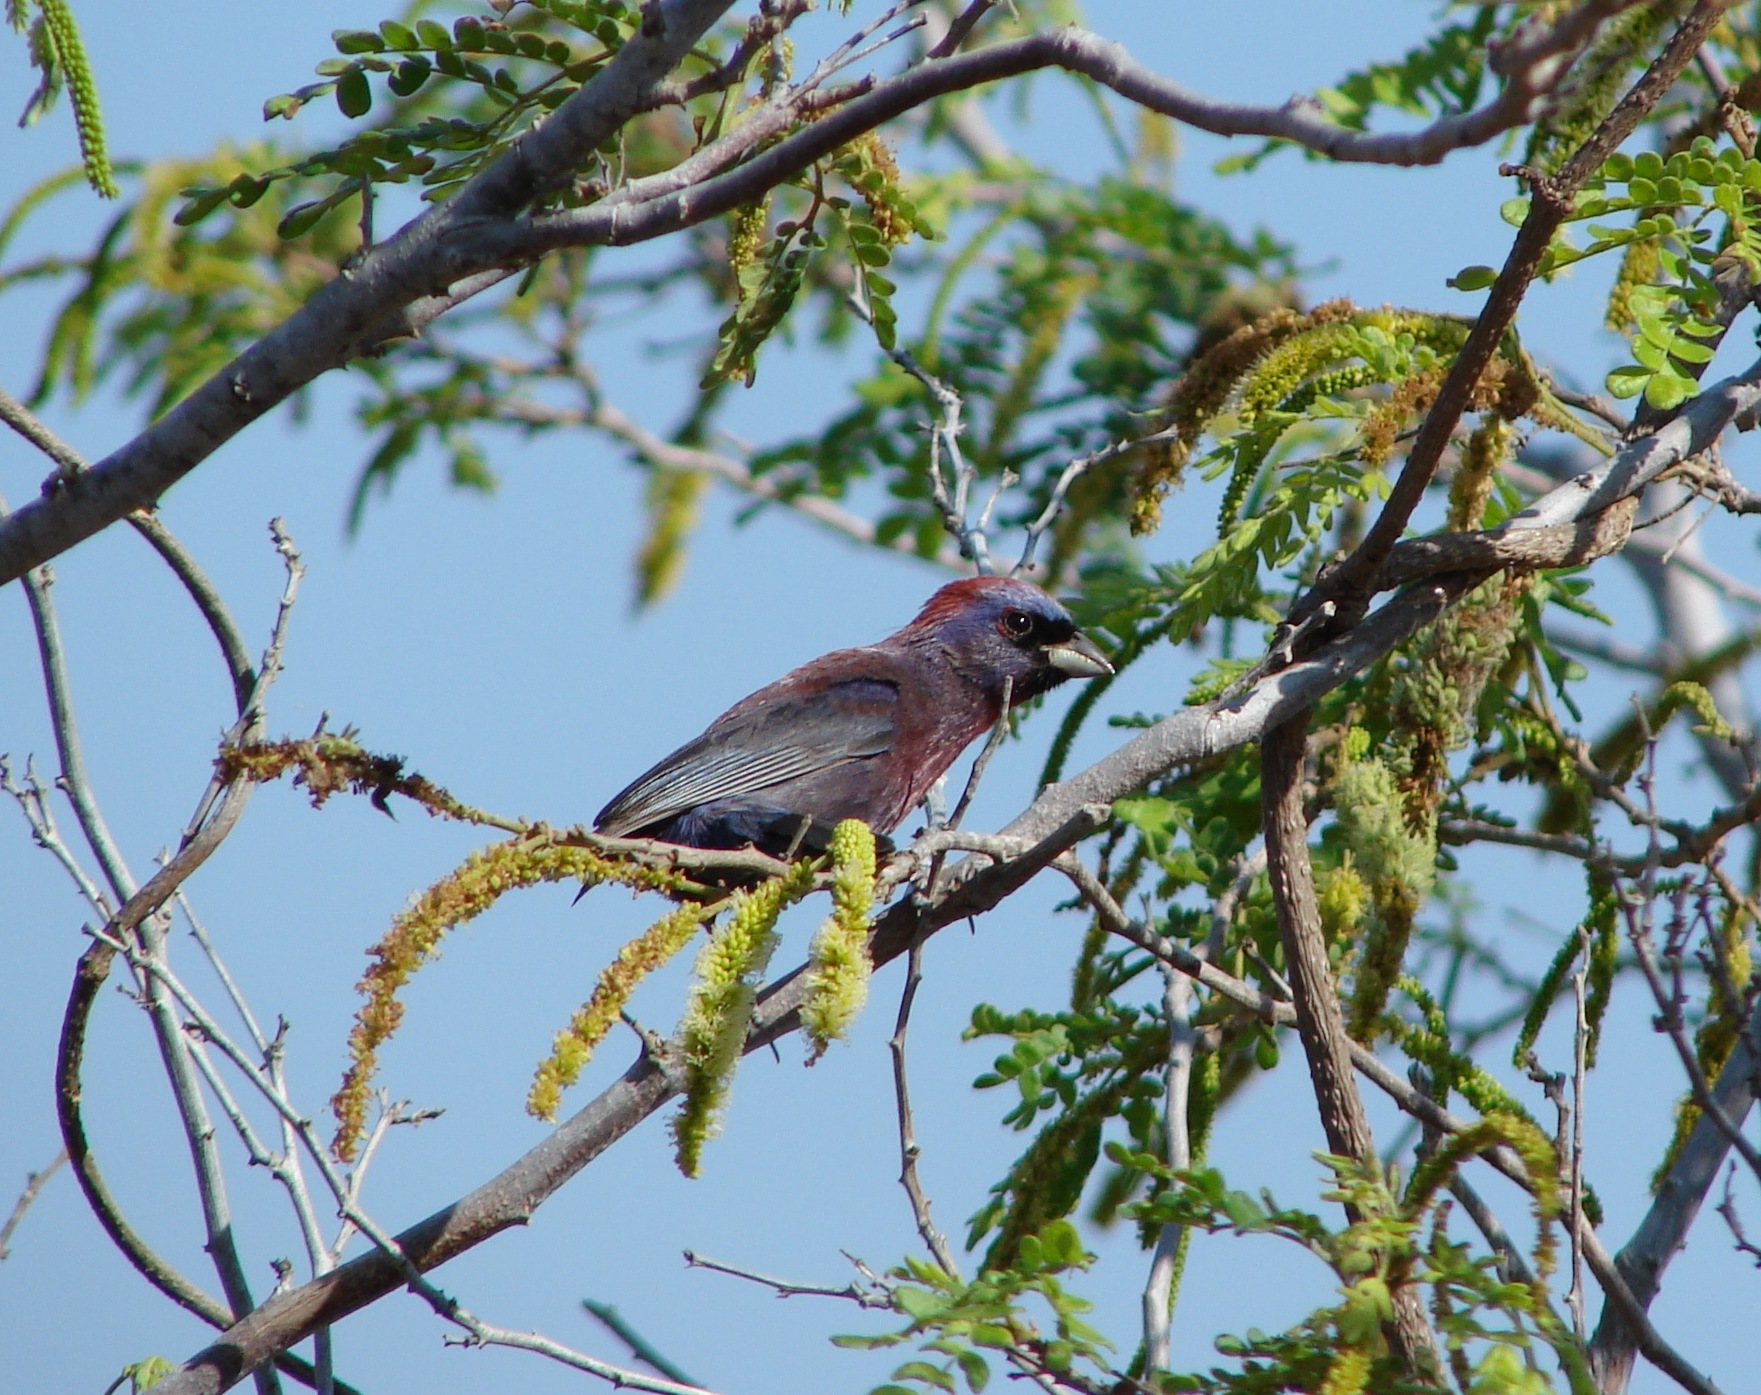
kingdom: Animalia
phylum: Chordata
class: Aves
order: Passeriformes
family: Cardinalidae
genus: Passerina
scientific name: Passerina versicolor
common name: Varied bunting
